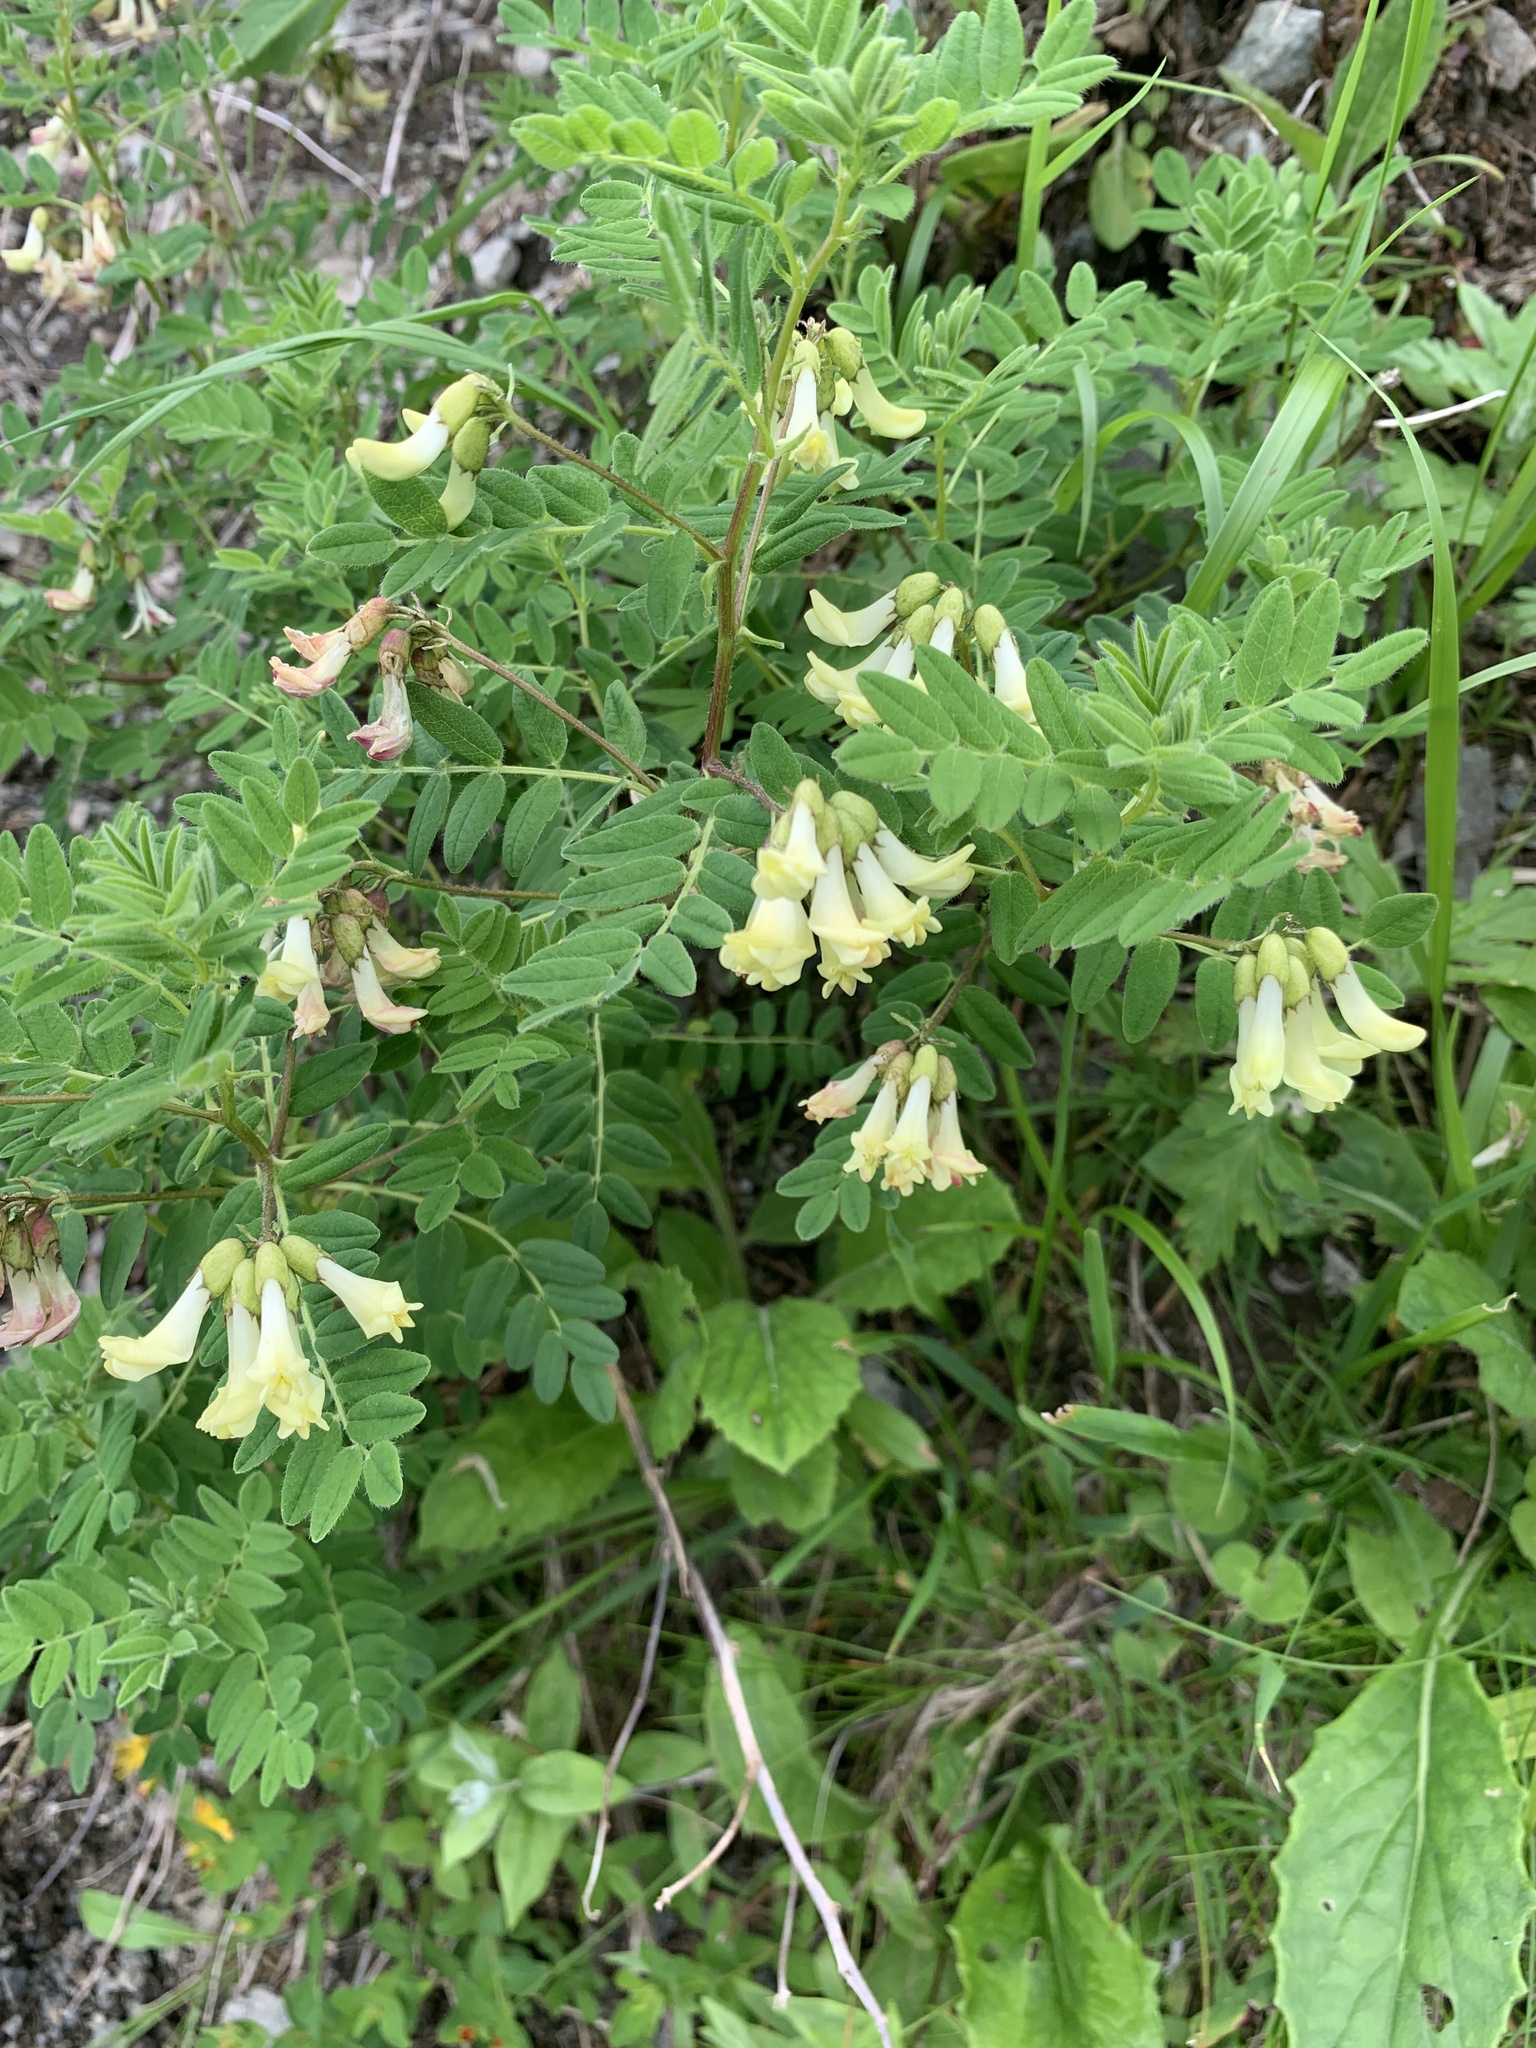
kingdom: Plantae
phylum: Tracheophyta
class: Magnoliopsida
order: Fabales
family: Fabaceae
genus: Astragalus
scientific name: Astragalus shinanensis
